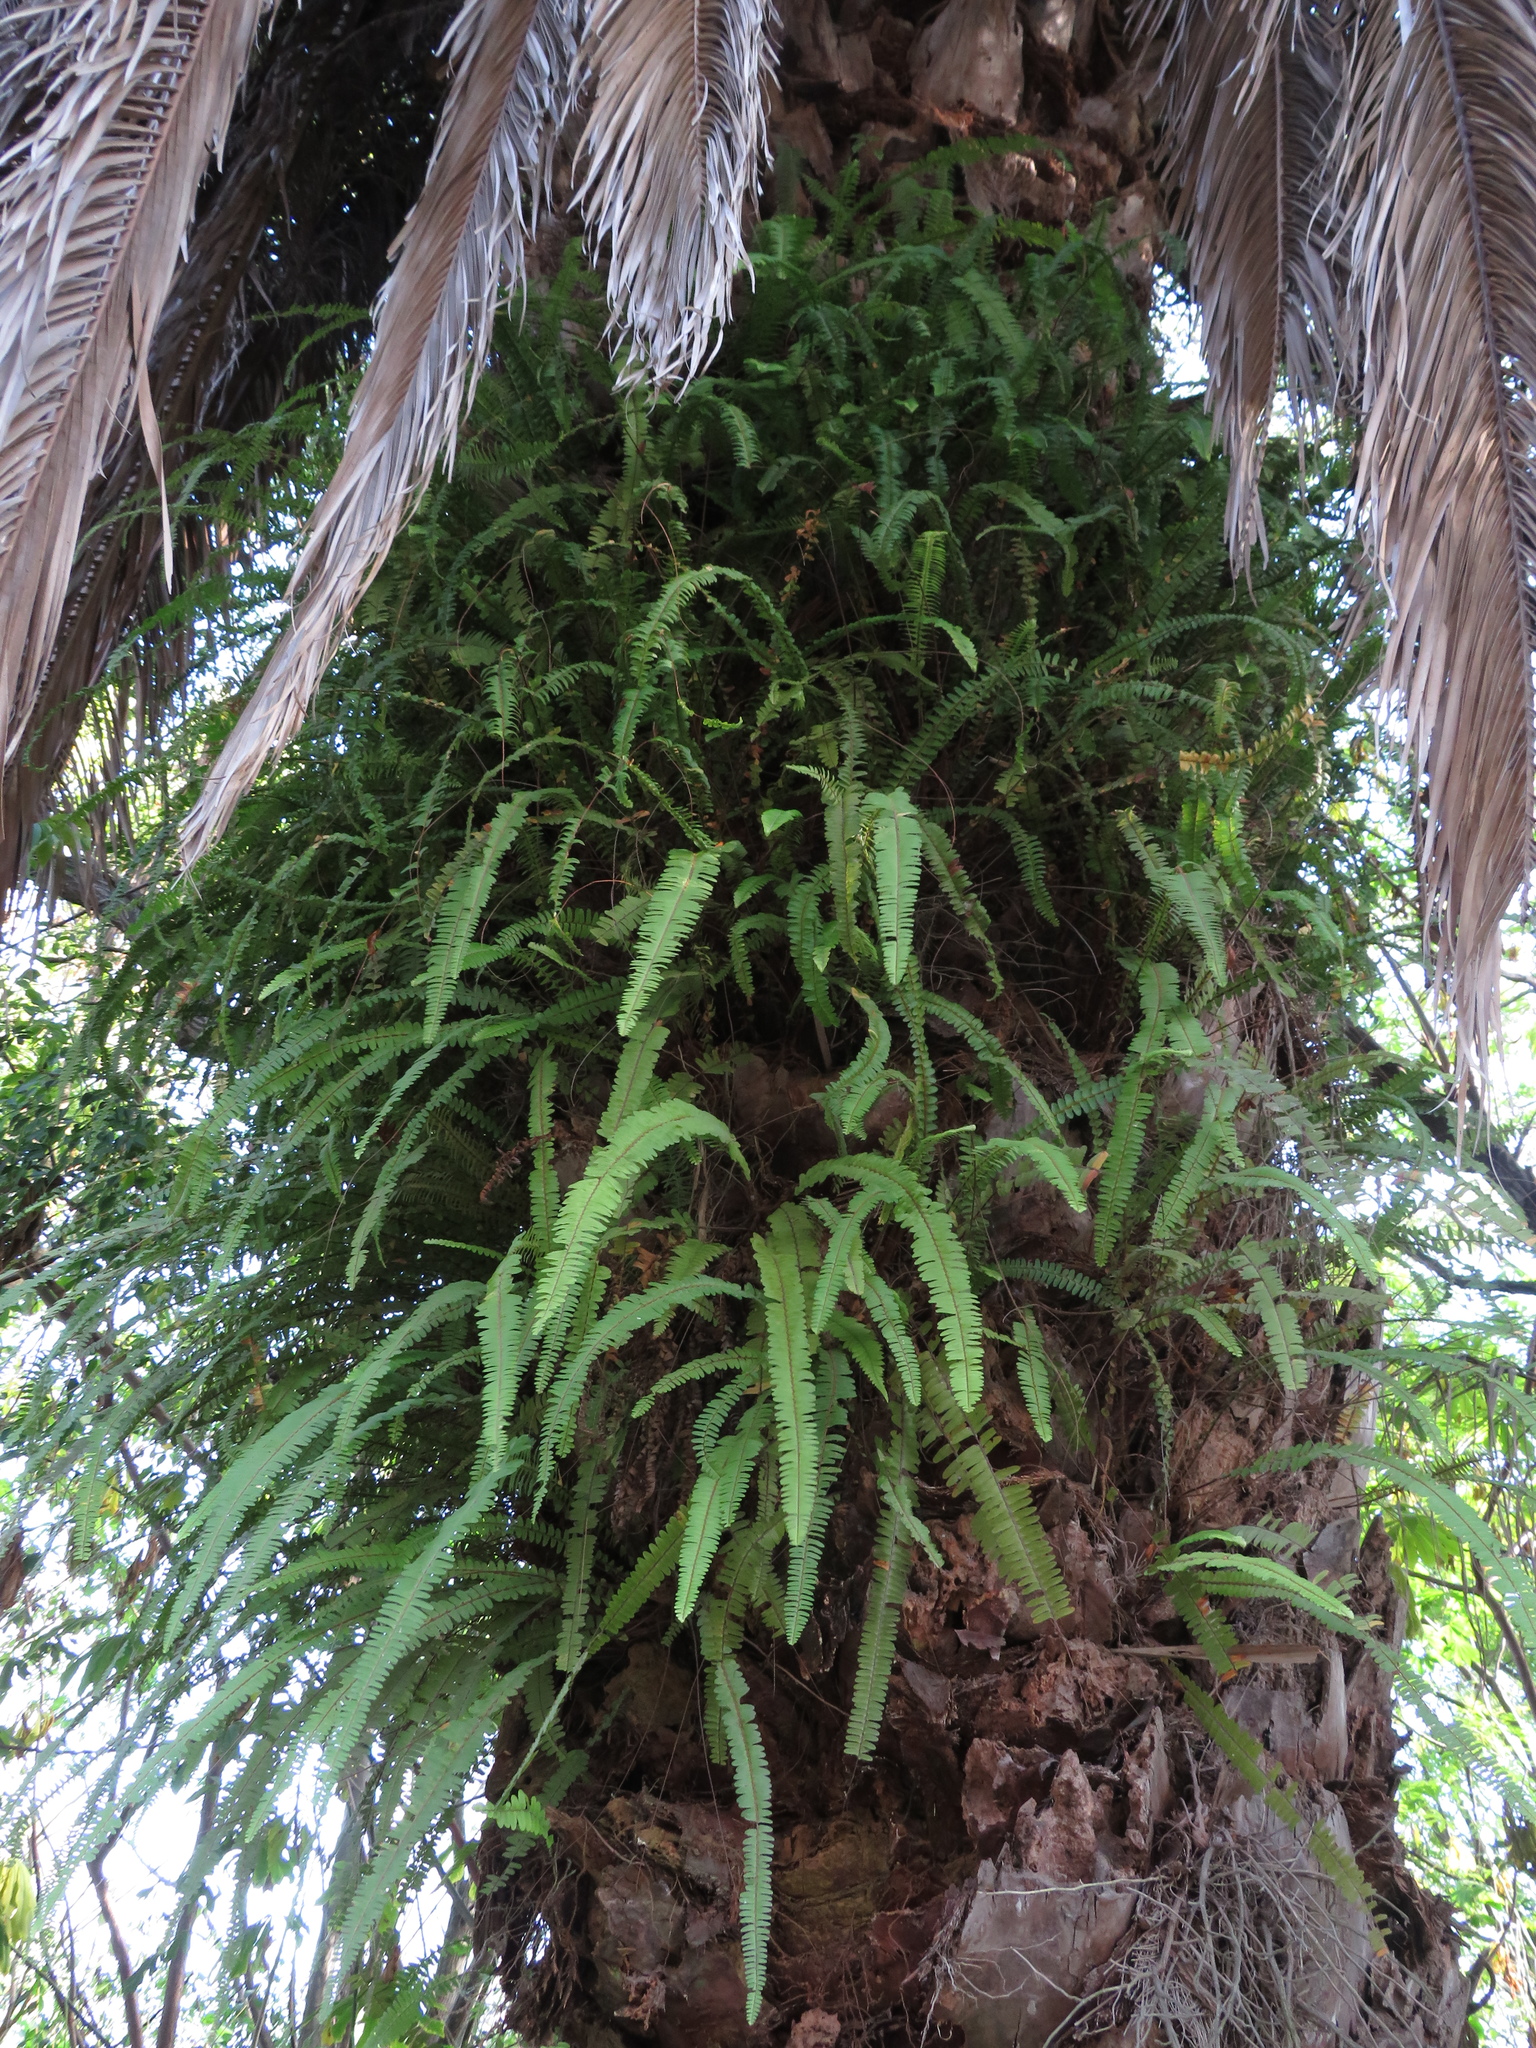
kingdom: Plantae
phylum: Tracheophyta
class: Polypodiopsida
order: Polypodiales
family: Nephrolepidaceae
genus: Nephrolepis
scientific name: Nephrolepis cordifolia
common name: Narrow swordfern
